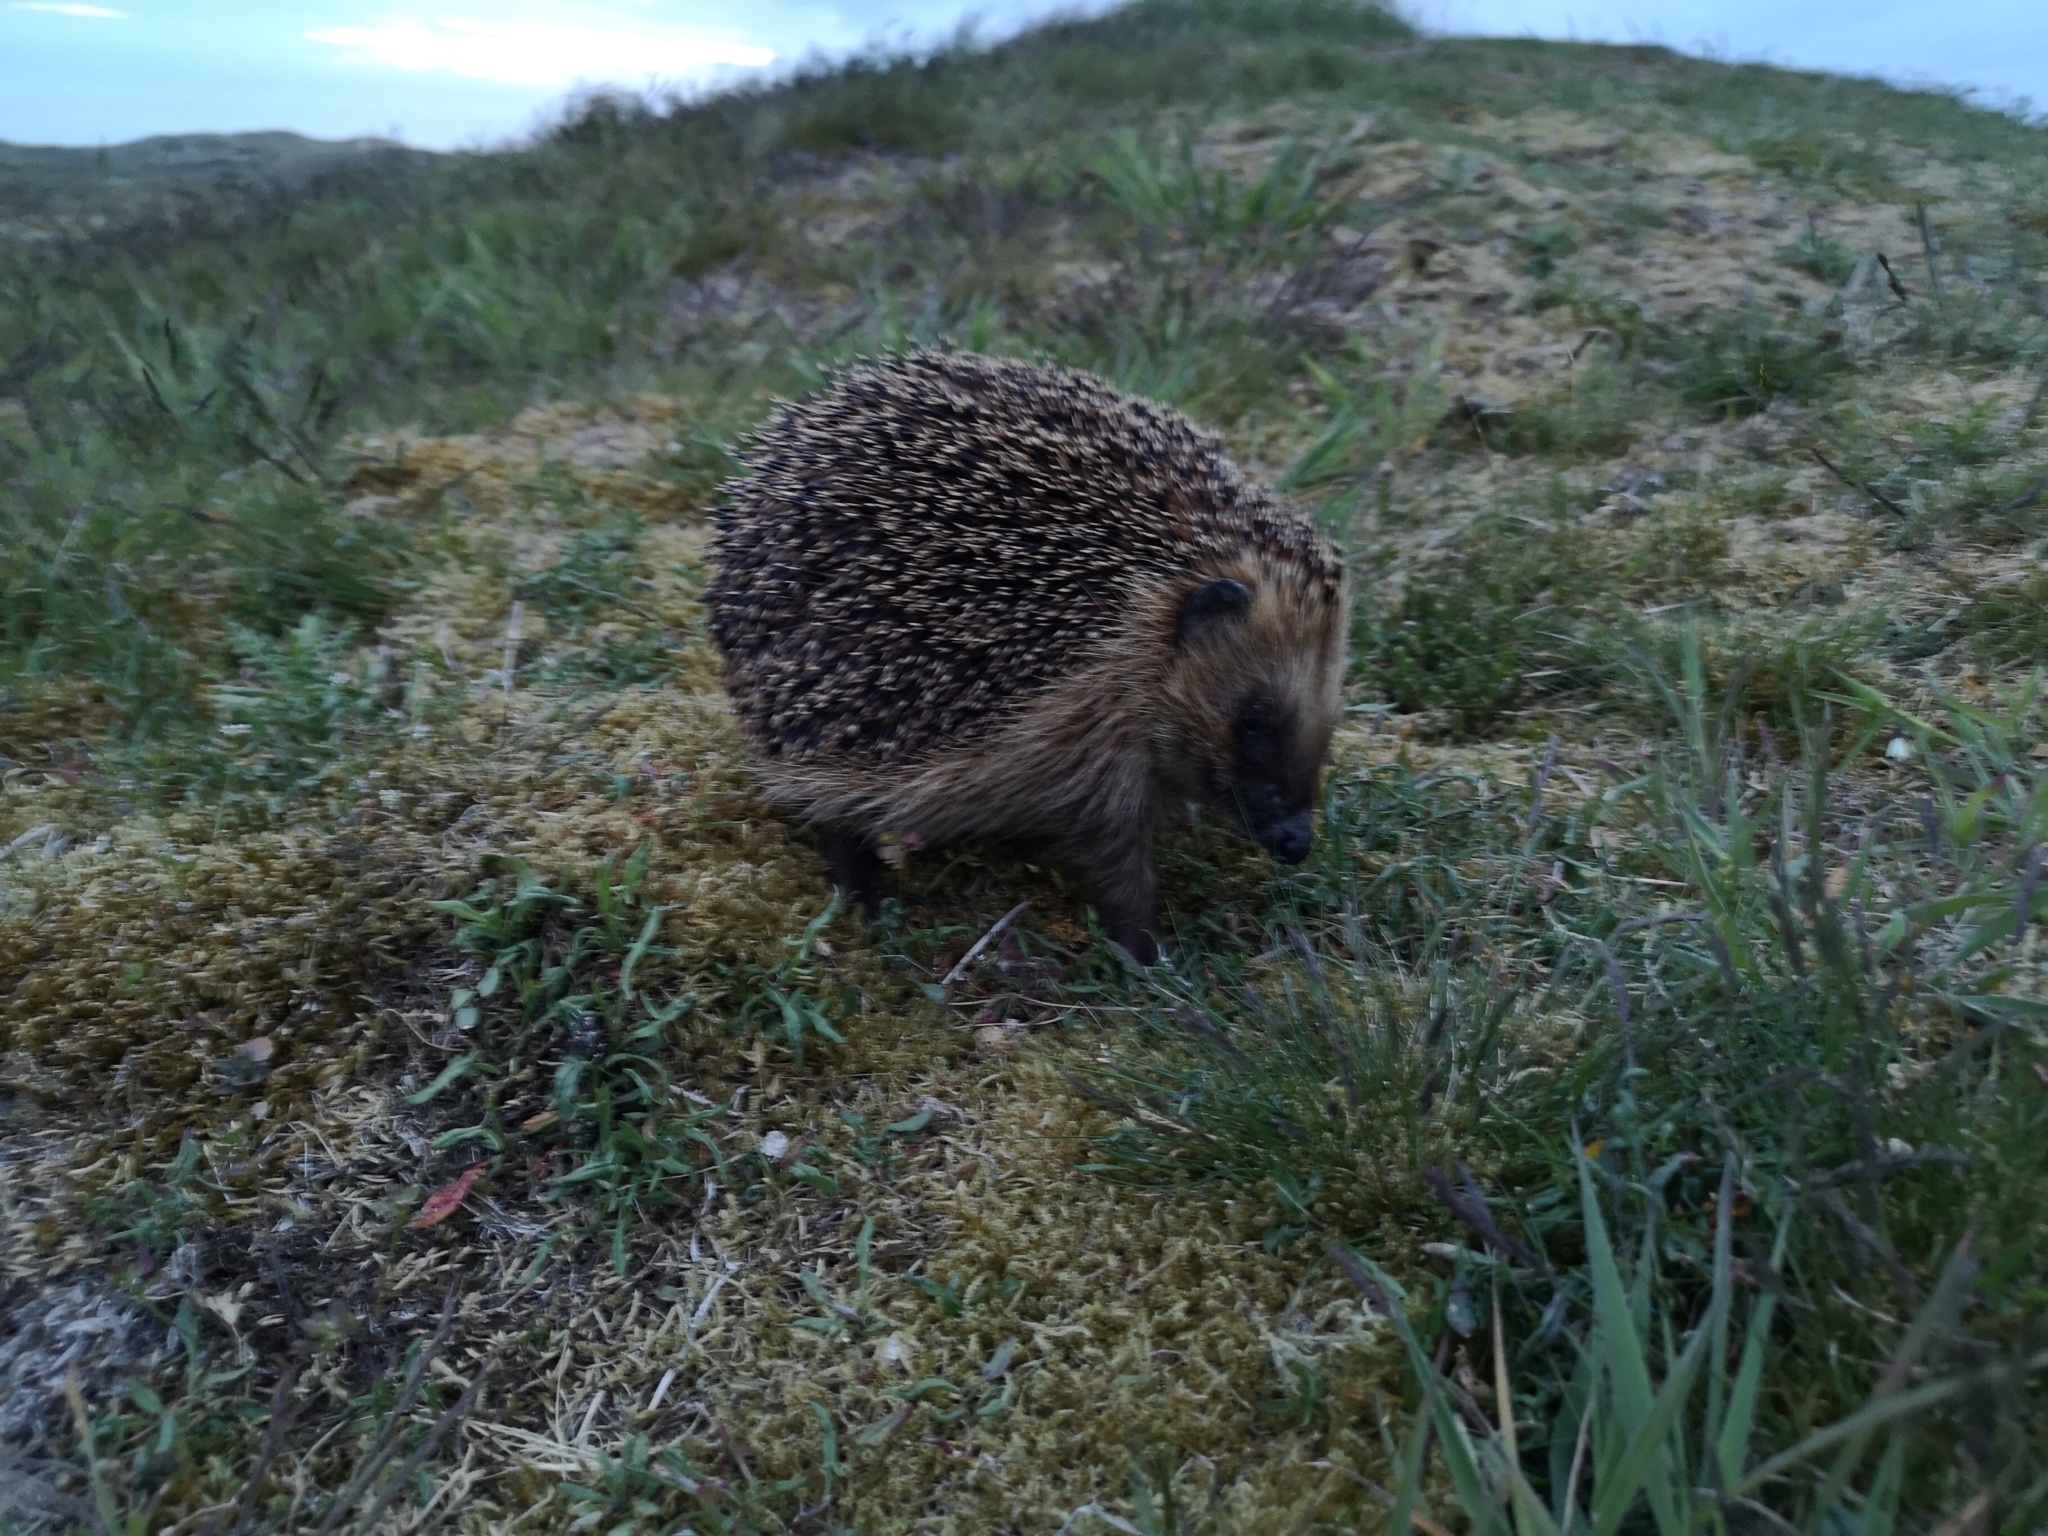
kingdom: Animalia
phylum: Chordata
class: Mammalia
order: Erinaceomorpha
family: Erinaceidae
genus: Erinaceus
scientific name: Erinaceus europaeus
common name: West european hedgehog
